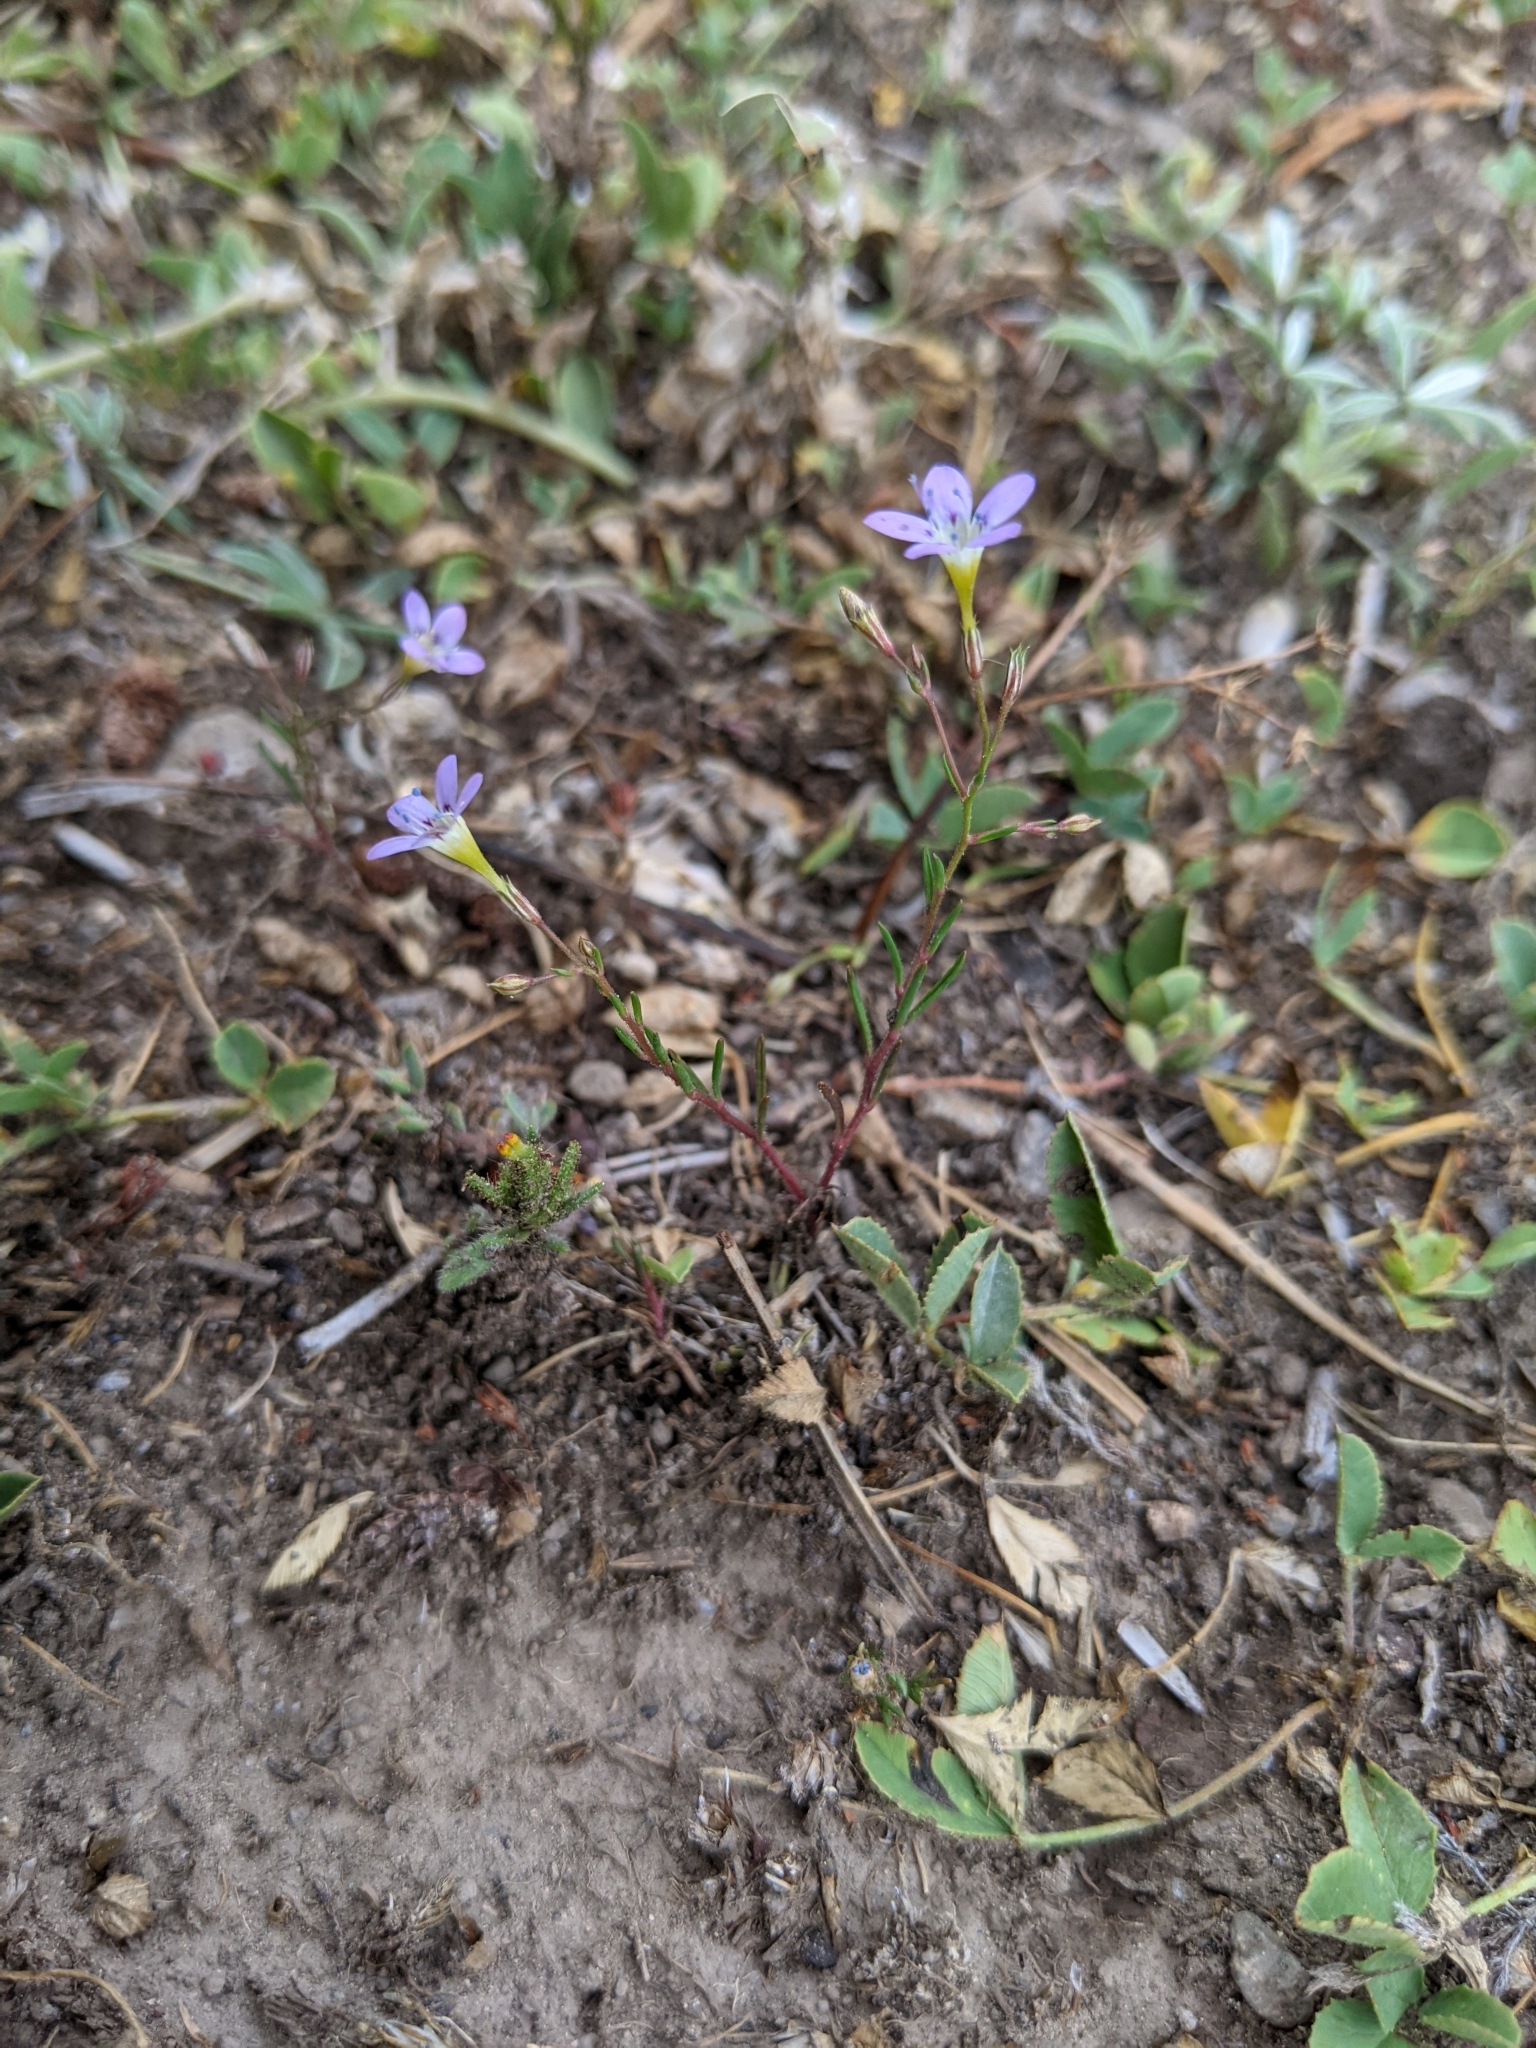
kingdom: Plantae
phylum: Tracheophyta
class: Magnoliopsida
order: Ericales
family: Polemoniaceae
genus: Navarretia
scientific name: Navarretia leptalea
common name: Bridges' pincushionplant
